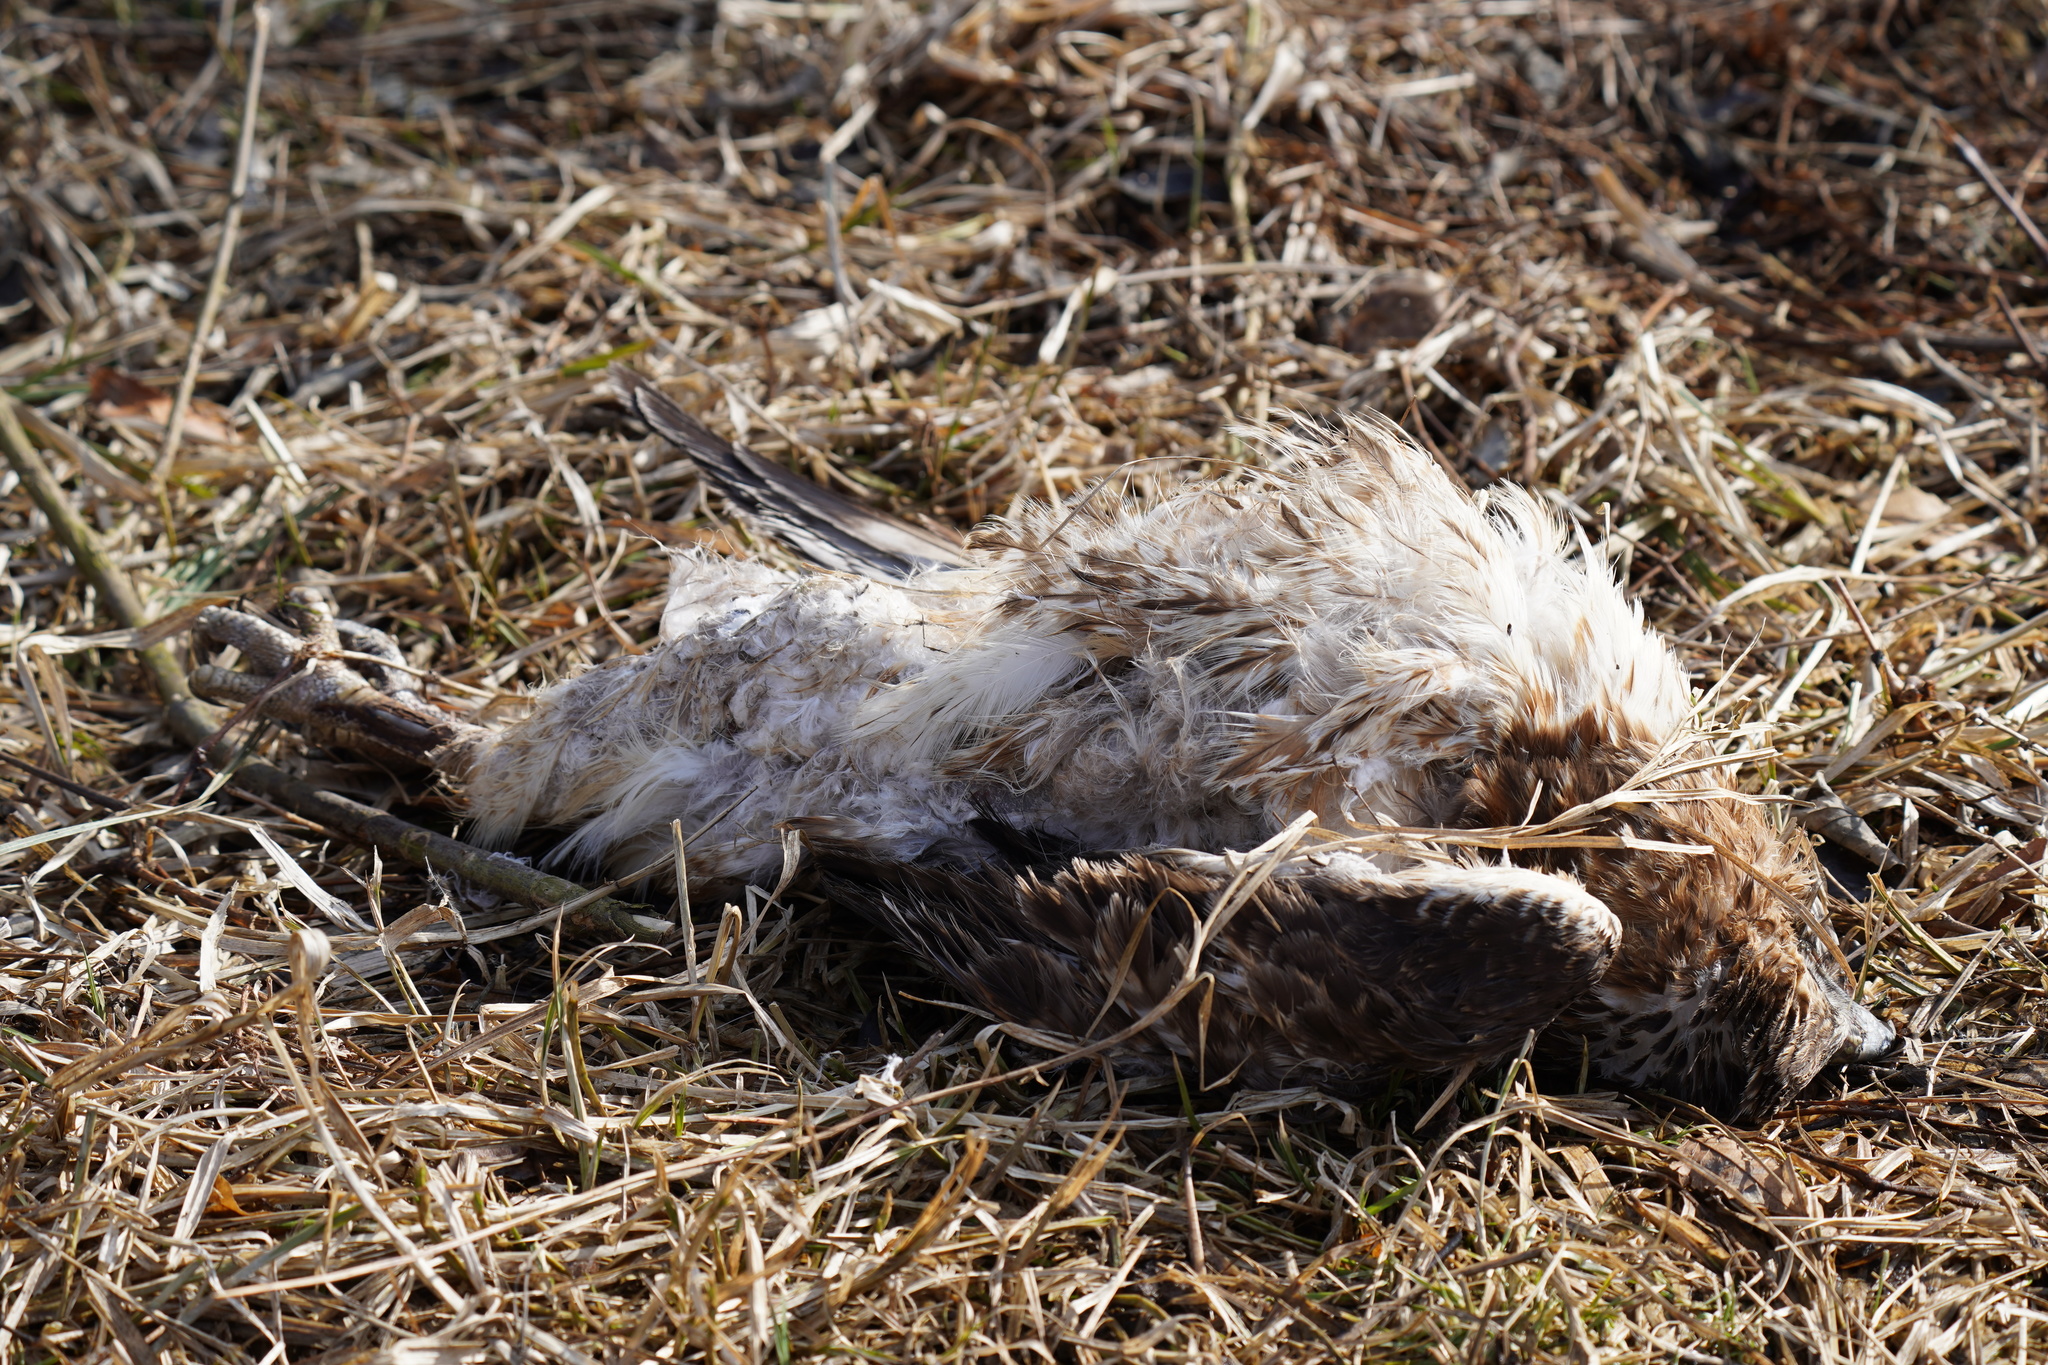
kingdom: Animalia
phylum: Chordata
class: Aves
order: Accipitriformes
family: Accipitridae
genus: Buteo
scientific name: Buteo jamaicensis
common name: Red-tailed hawk
